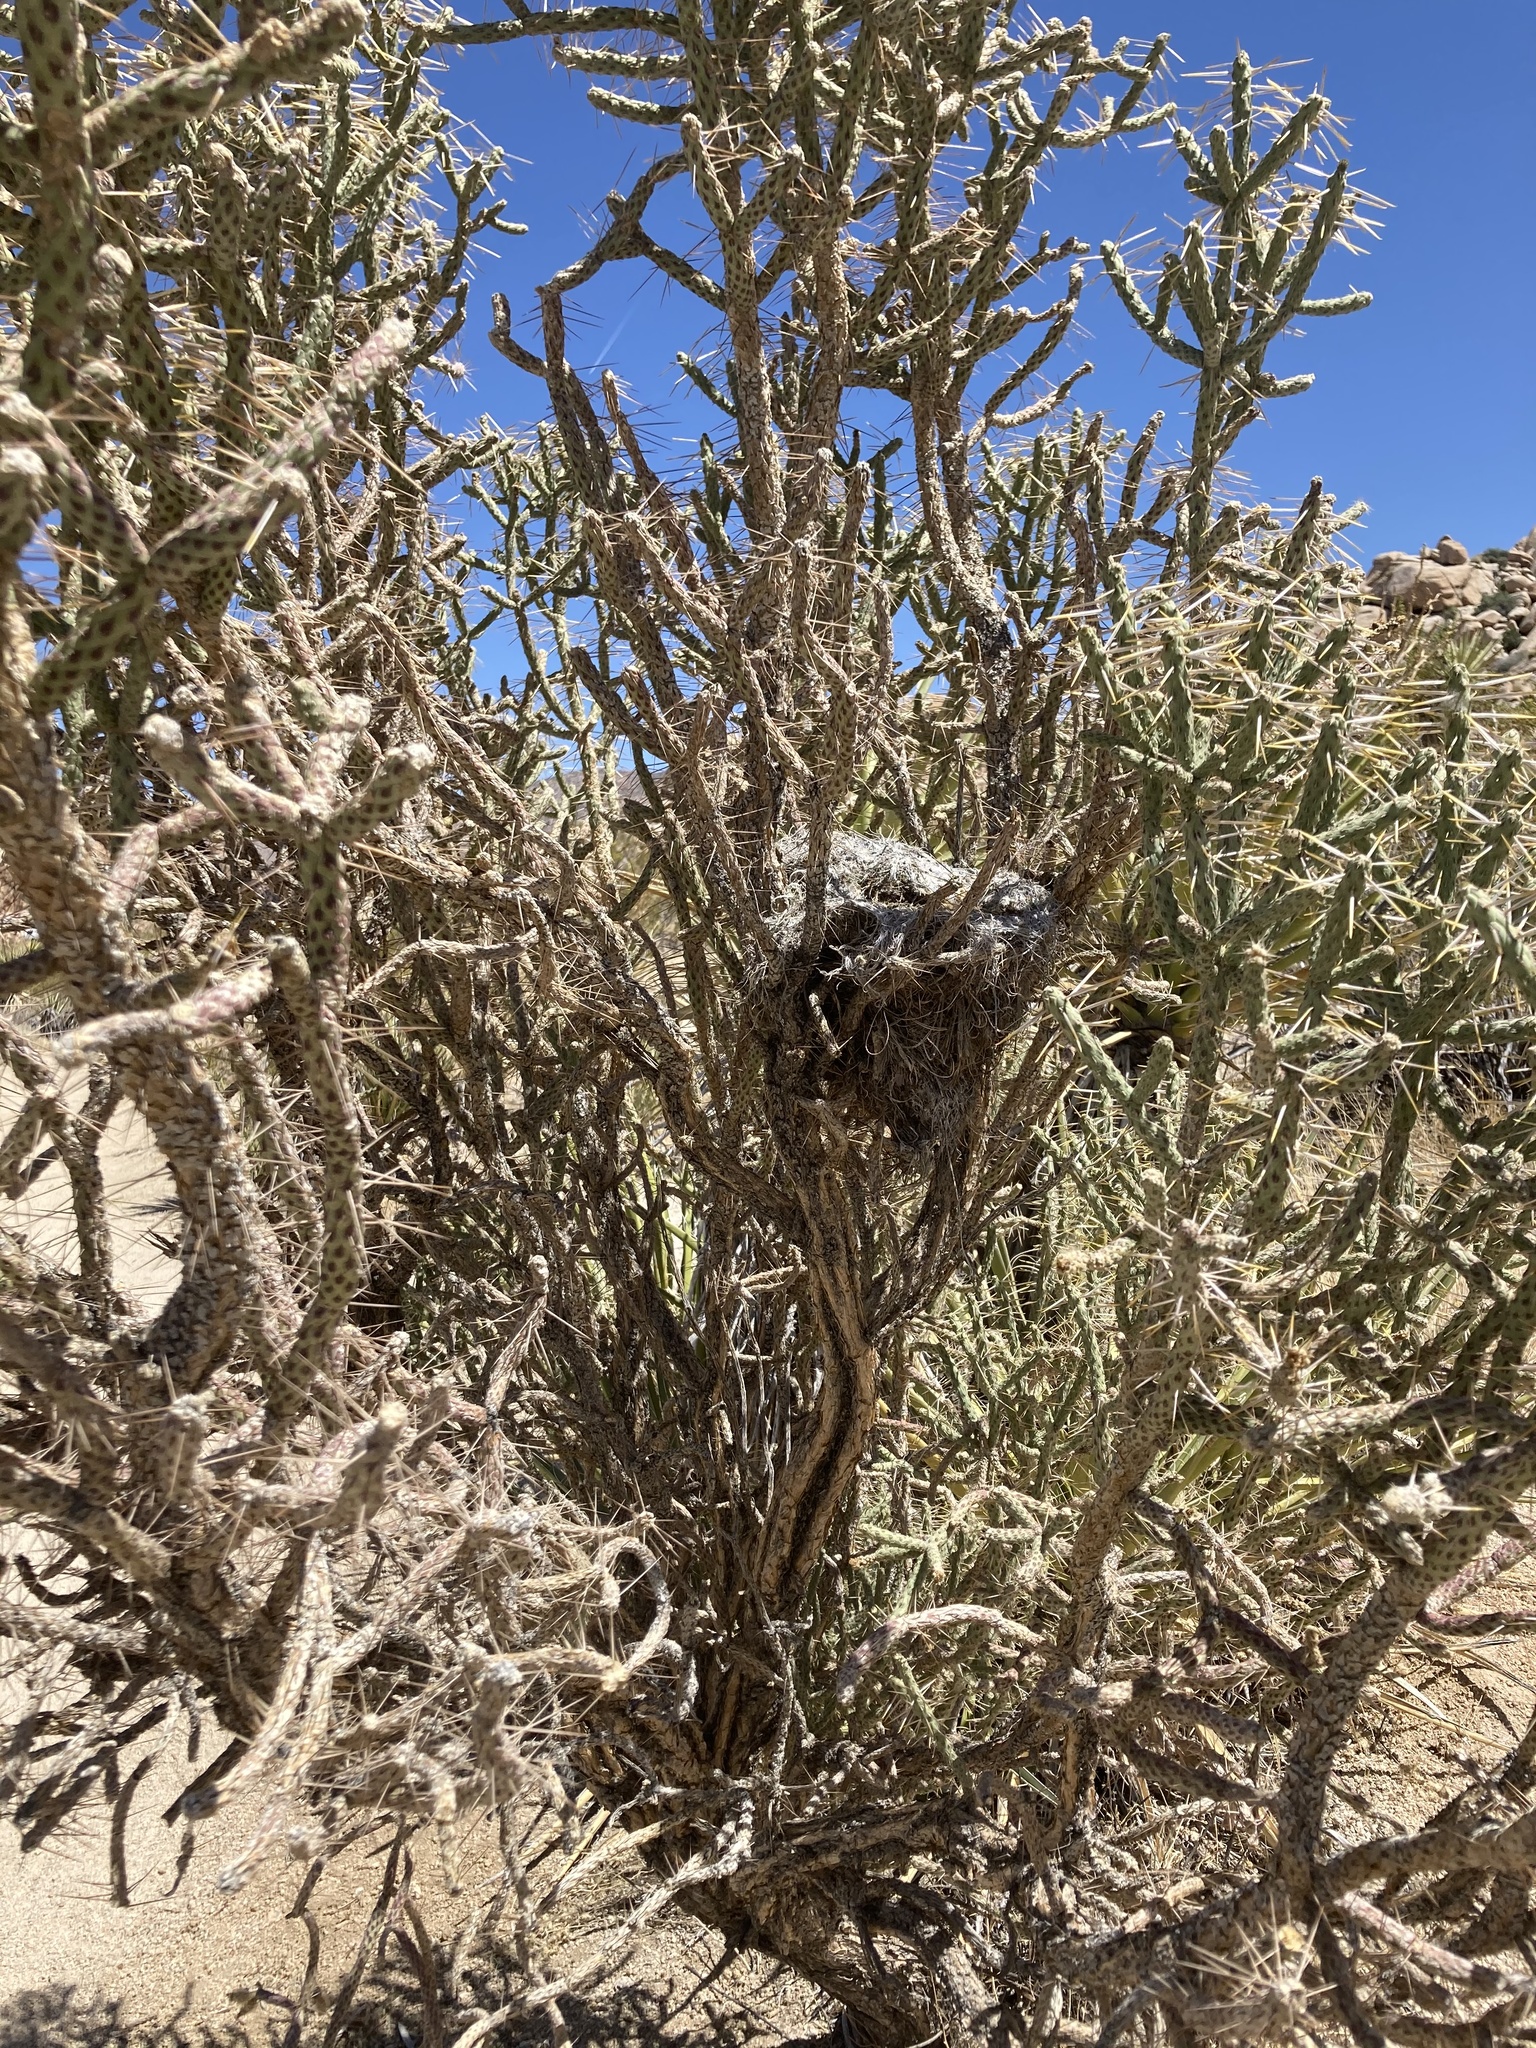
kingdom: Plantae
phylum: Tracheophyta
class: Magnoliopsida
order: Caryophyllales
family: Cactaceae
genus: Cylindropuntia
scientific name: Cylindropuntia ramosissima
